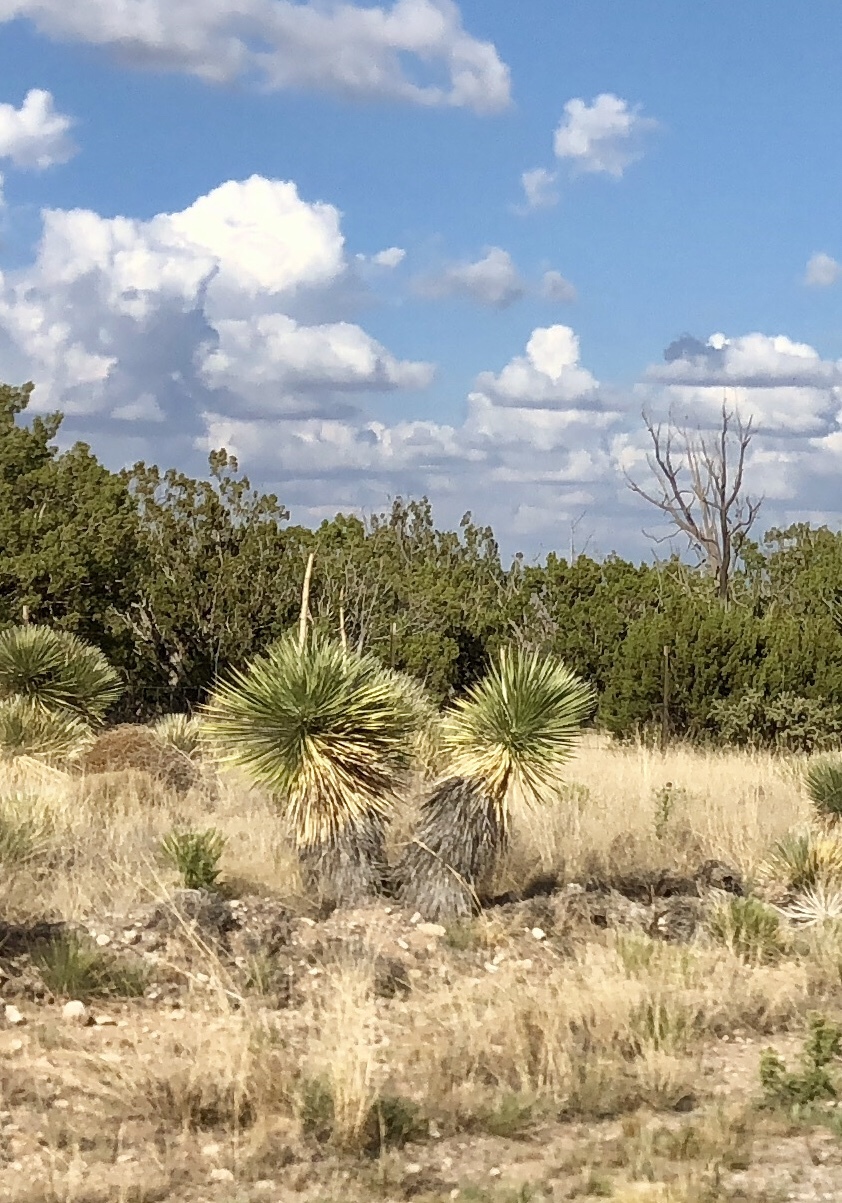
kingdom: Plantae
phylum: Tracheophyta
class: Liliopsida
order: Asparagales
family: Asparagaceae
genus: Yucca
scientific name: Yucca elata
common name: Palmella
